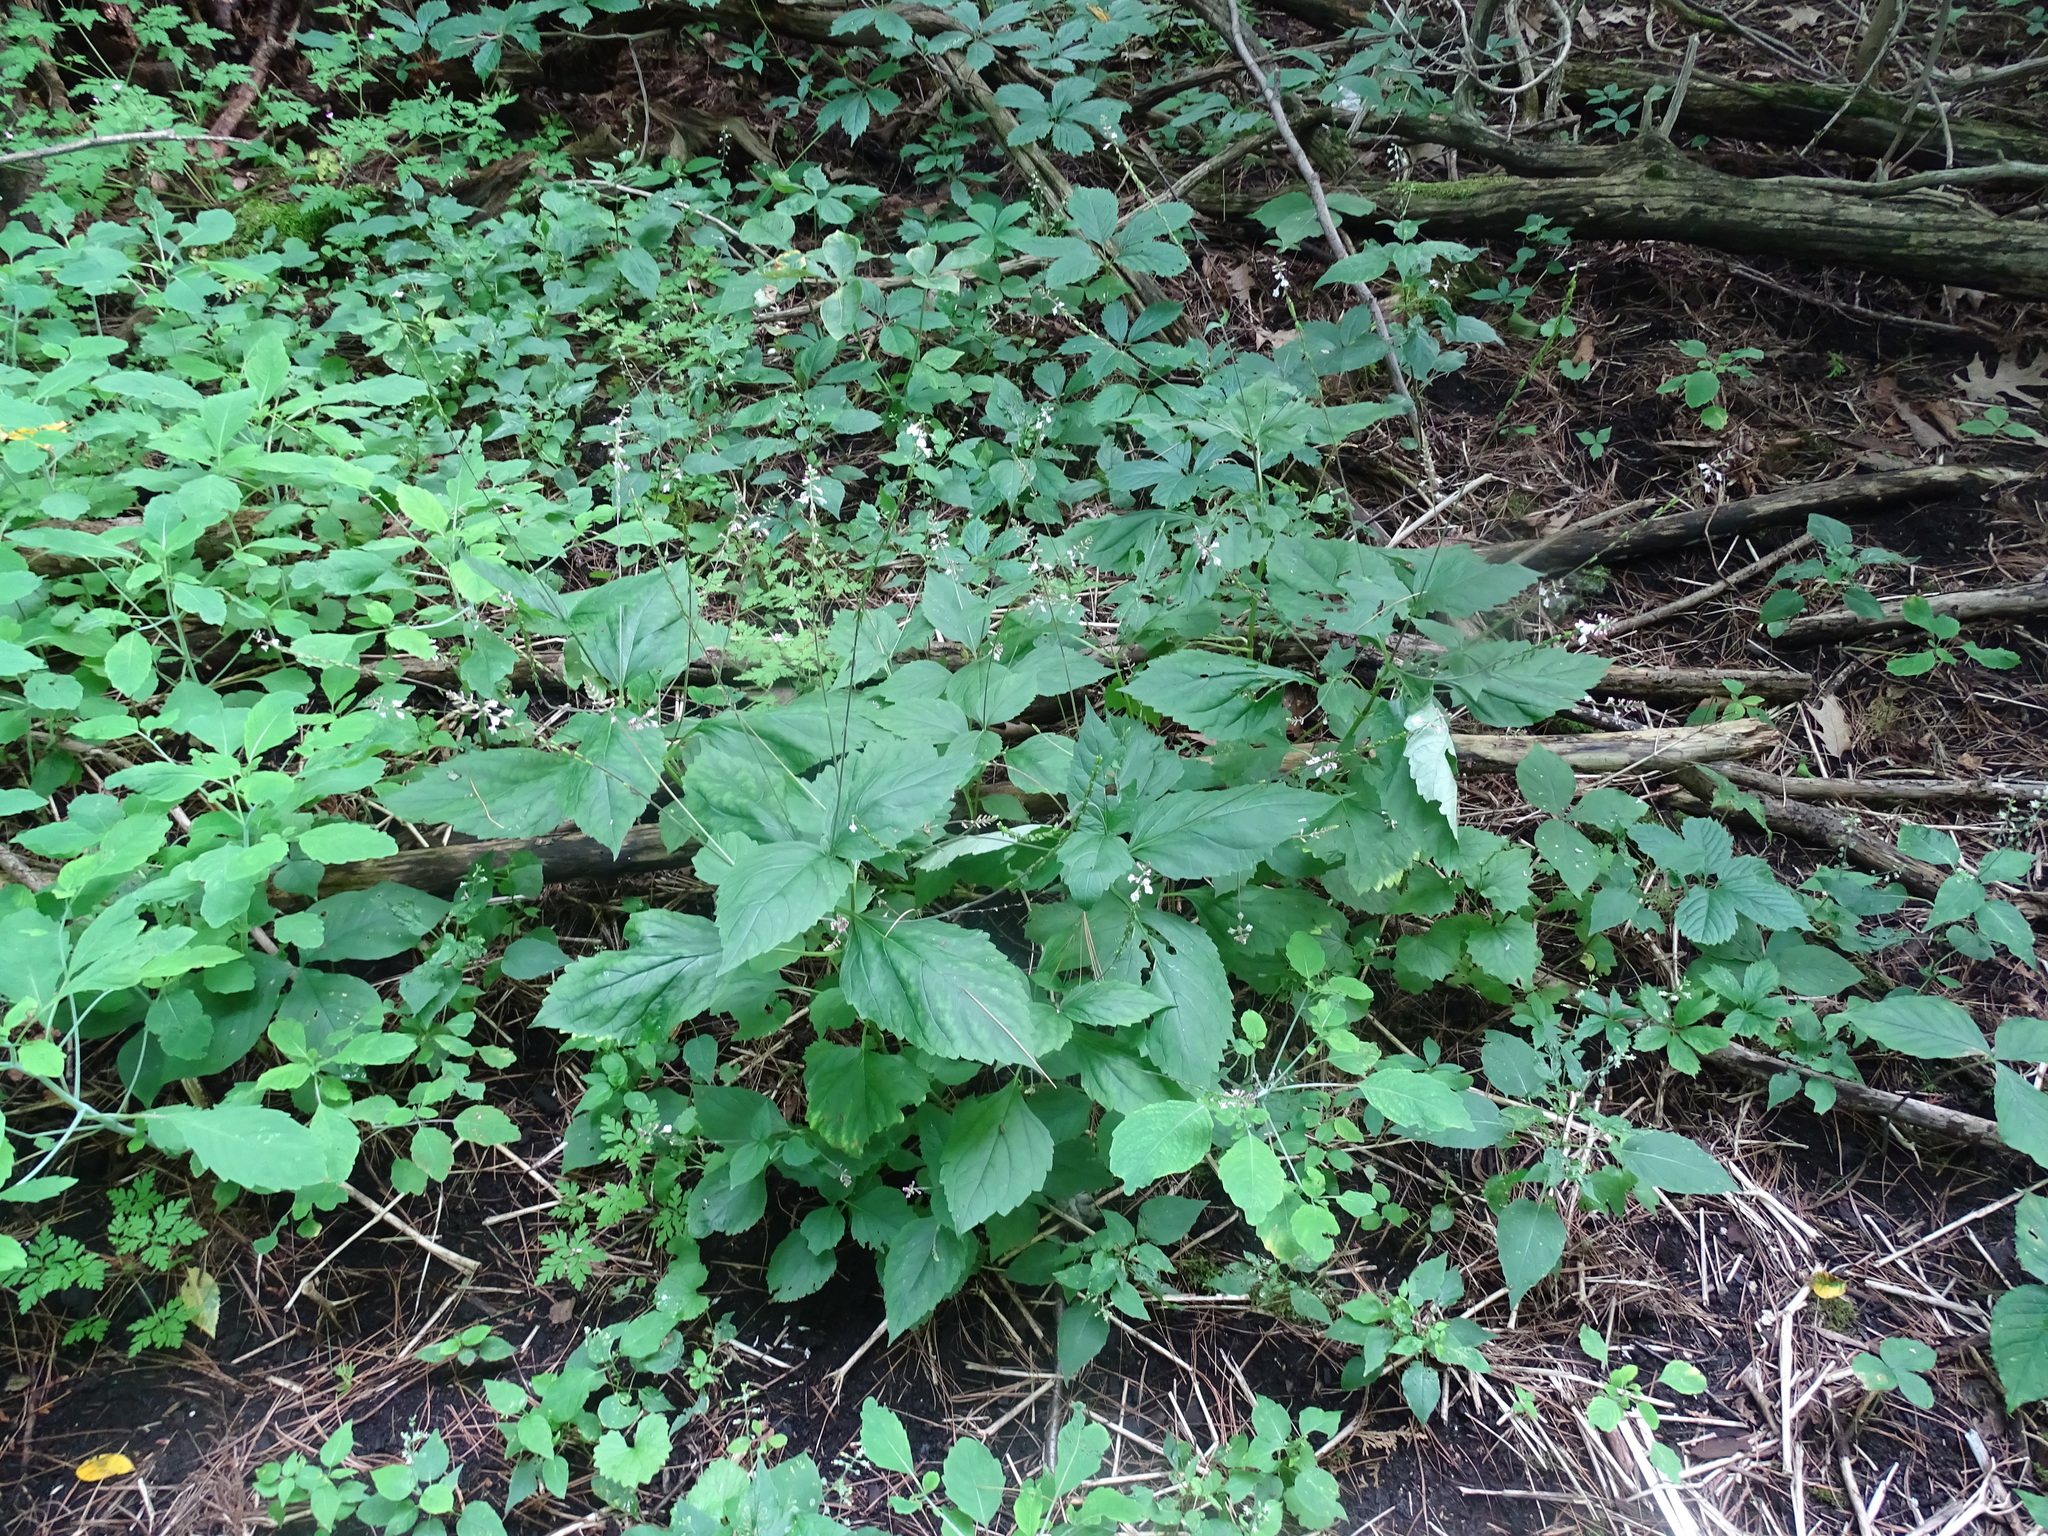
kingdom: Plantae
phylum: Tracheophyta
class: Magnoliopsida
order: Lamiales
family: Phrymaceae
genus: Phryma
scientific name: Phryma leptostachya
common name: American lopseed
